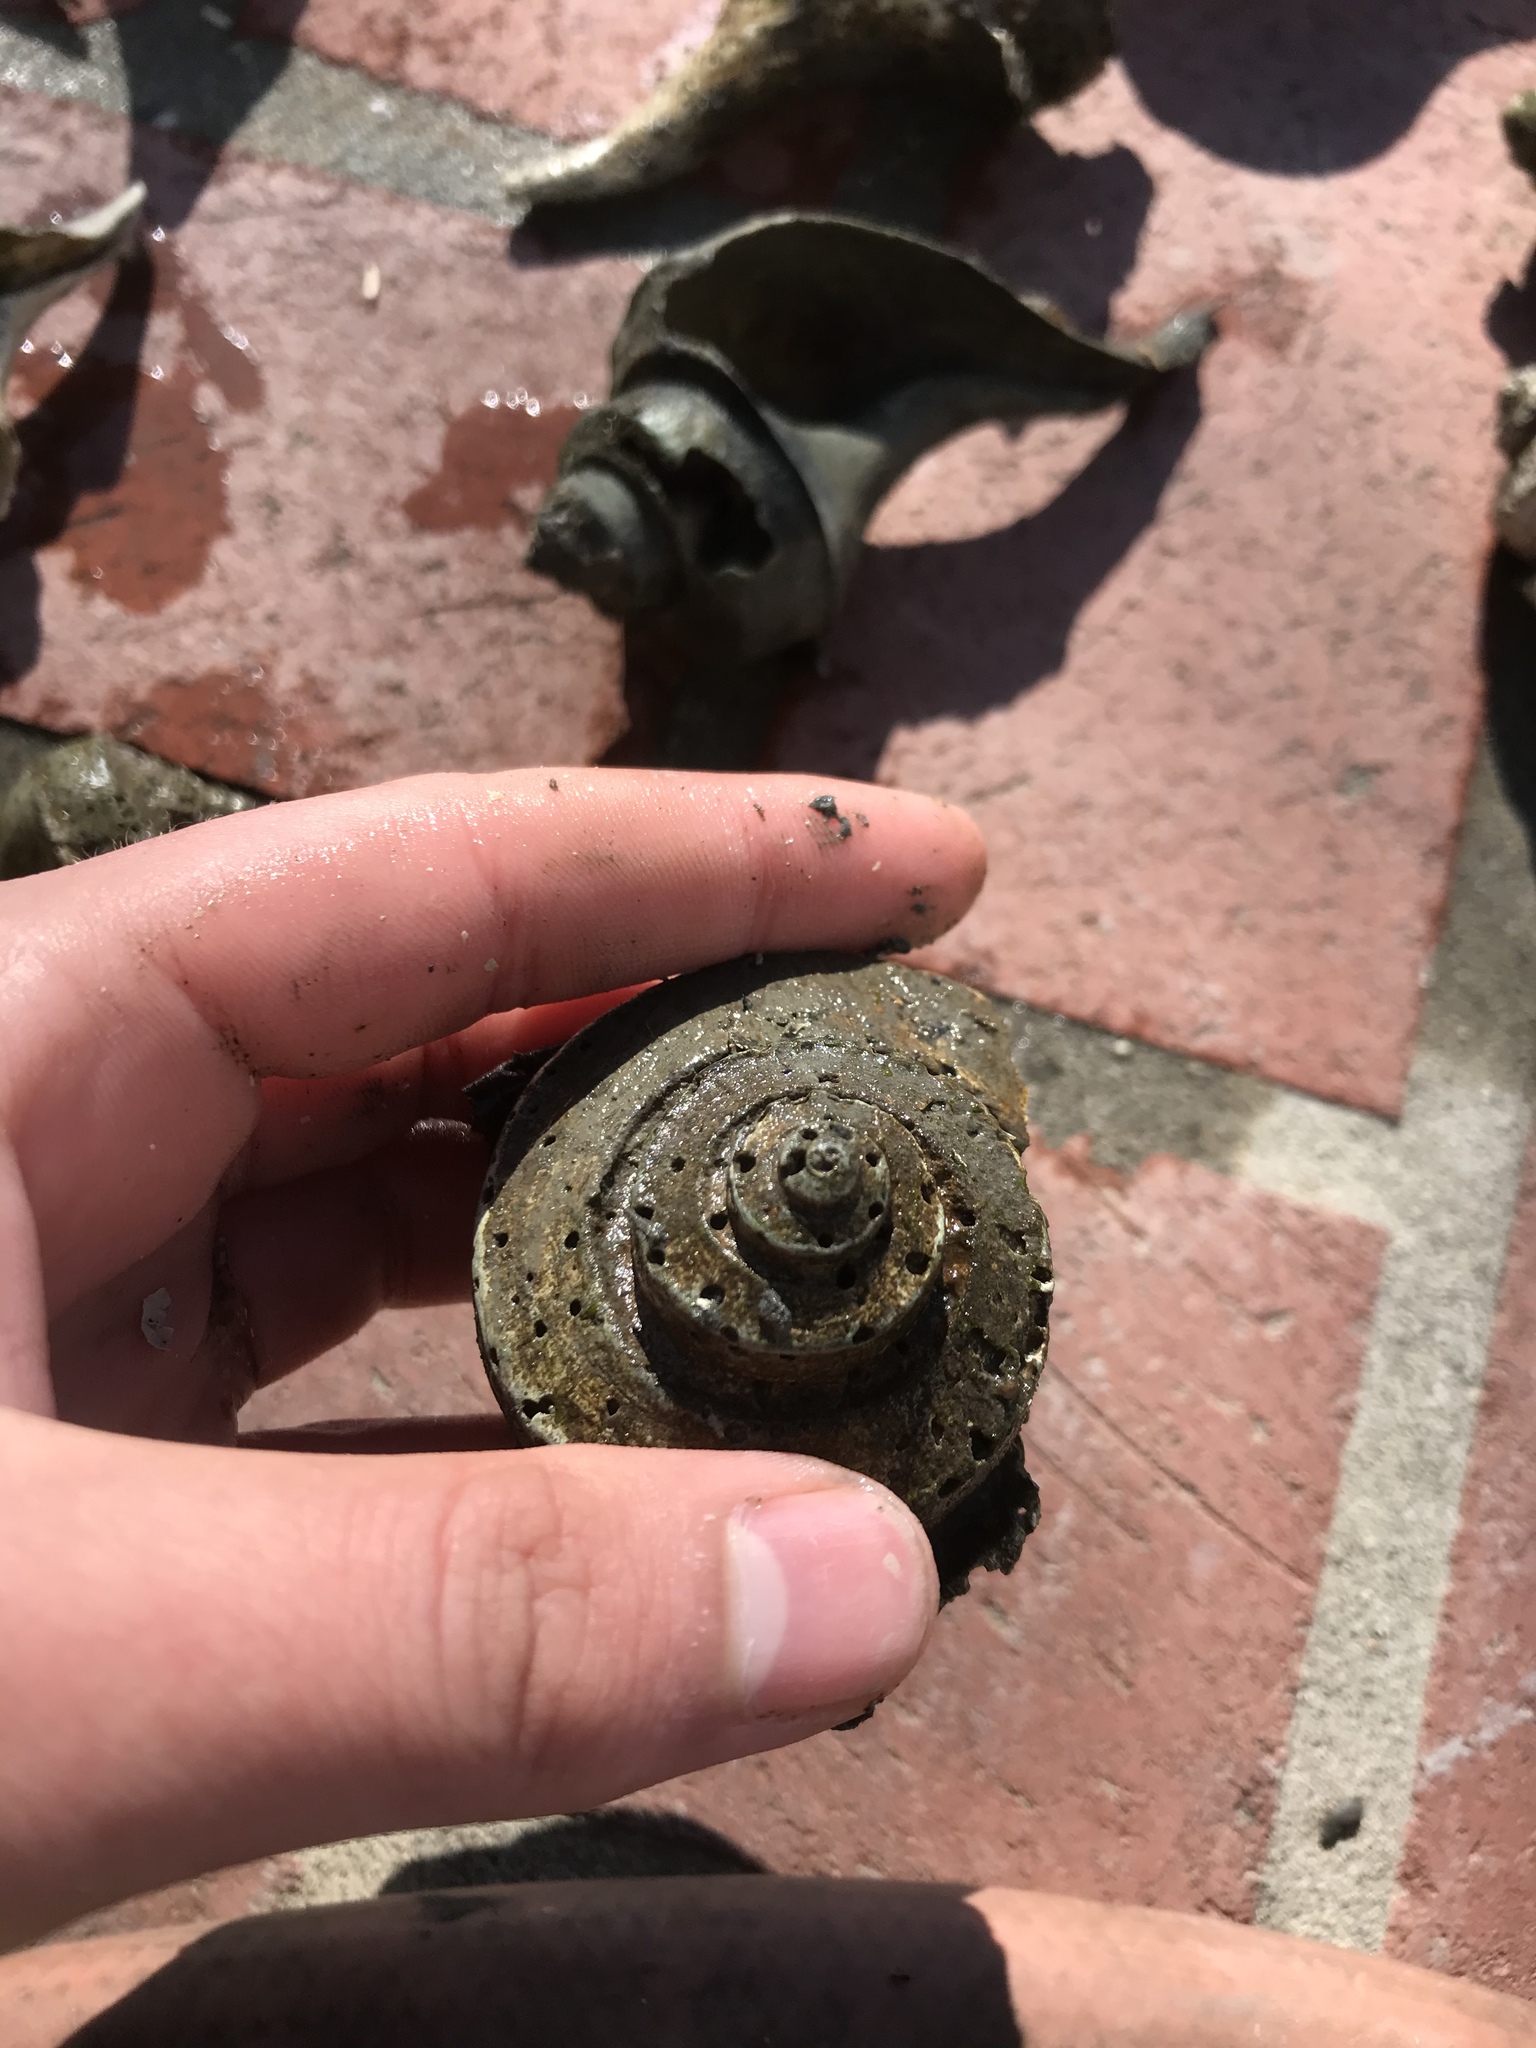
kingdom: Animalia
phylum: Mollusca
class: Gastropoda
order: Neogastropoda
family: Busyconidae
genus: Busycotypus
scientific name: Busycotypus canaliculatus
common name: Channeled whelk
